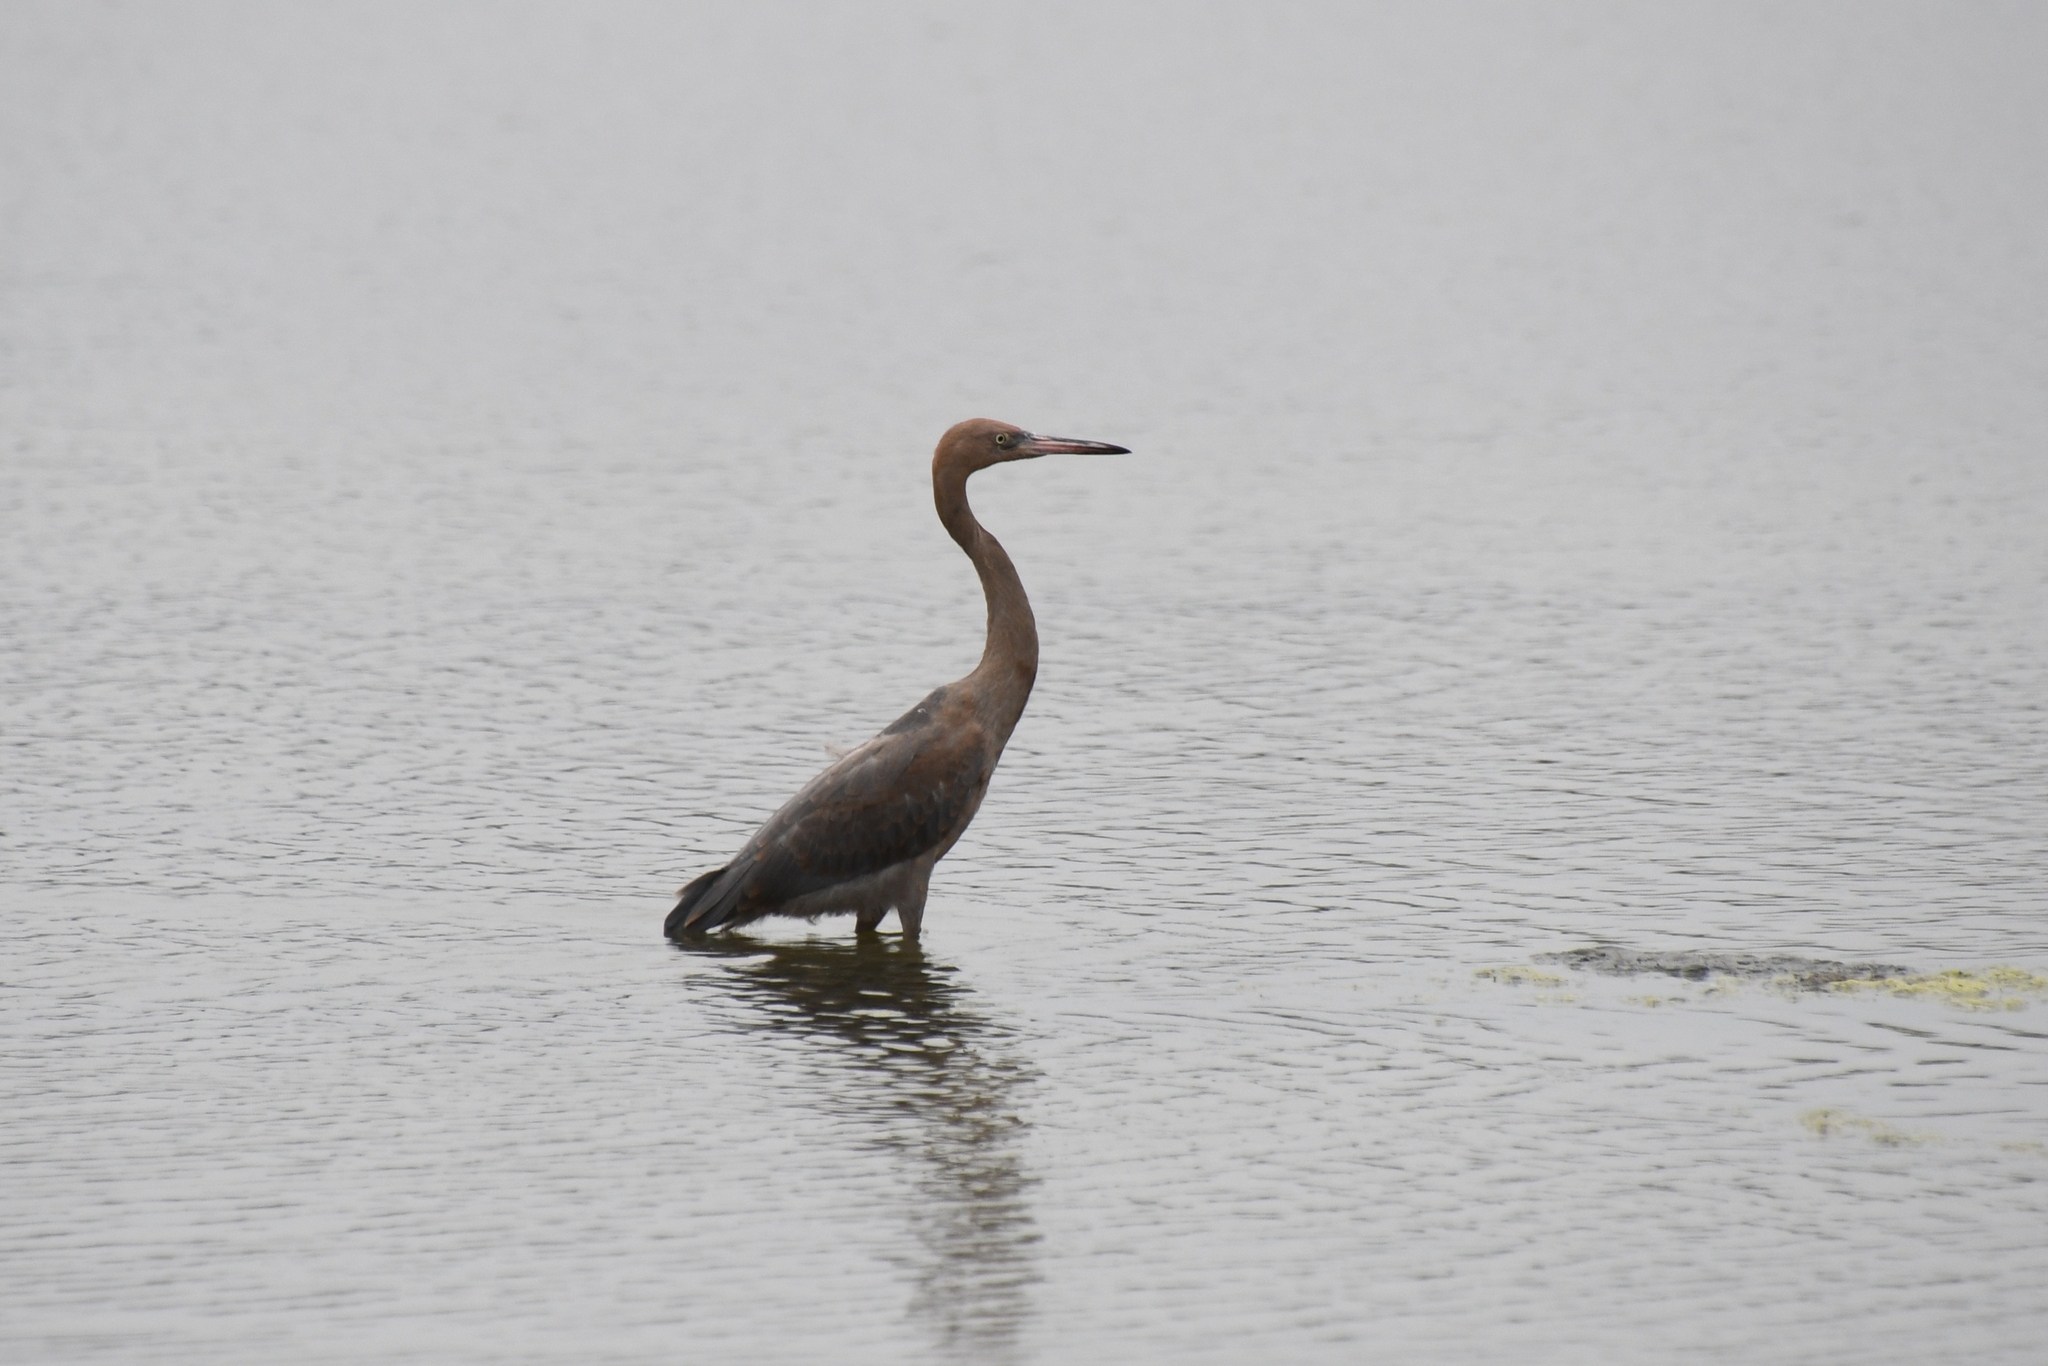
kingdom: Animalia
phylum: Chordata
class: Aves
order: Pelecaniformes
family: Ardeidae
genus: Egretta
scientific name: Egretta rufescens
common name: Reddish egret
